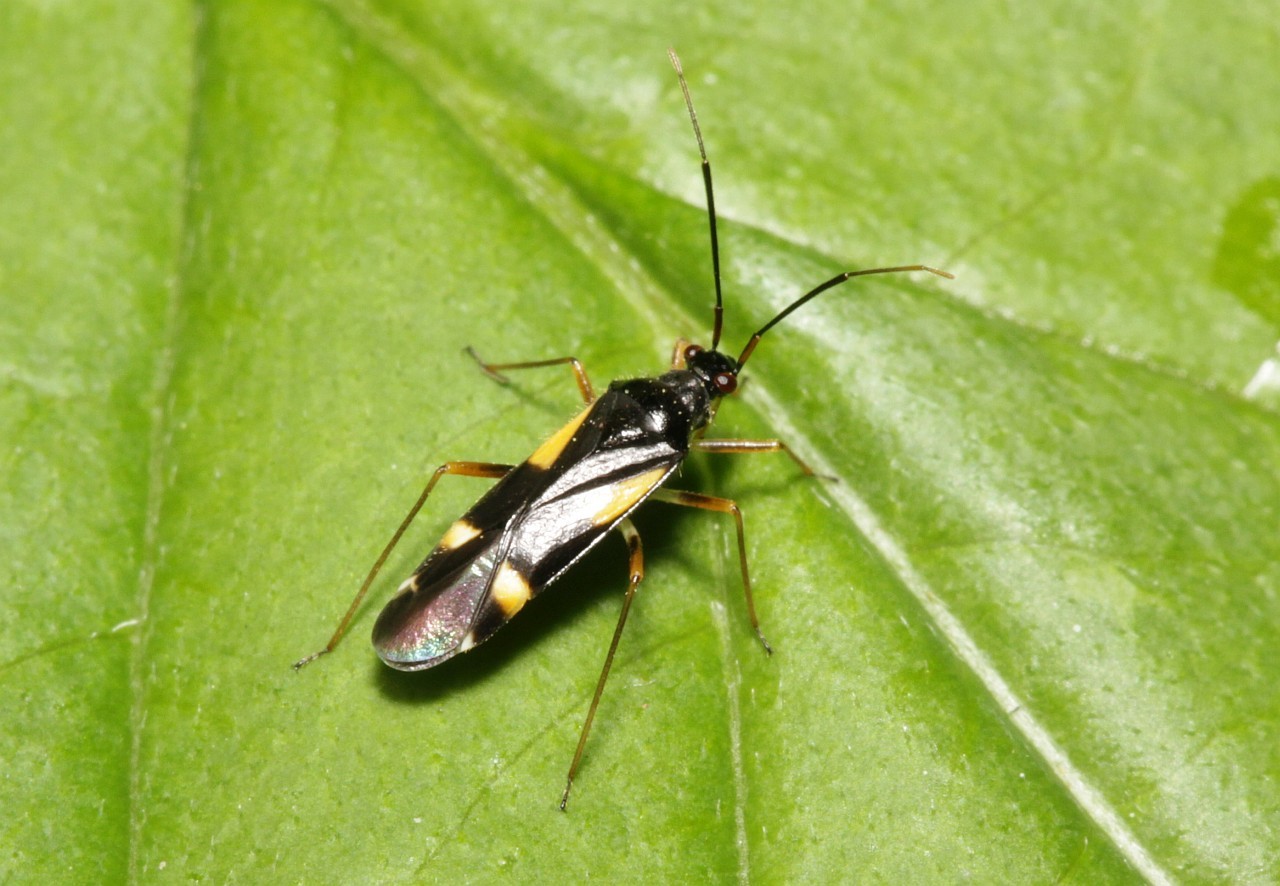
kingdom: Animalia
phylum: Arthropoda
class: Insecta
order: Hemiptera
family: Miridae
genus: Dryophilocoris
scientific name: Dryophilocoris flavoquadrimaculatus
